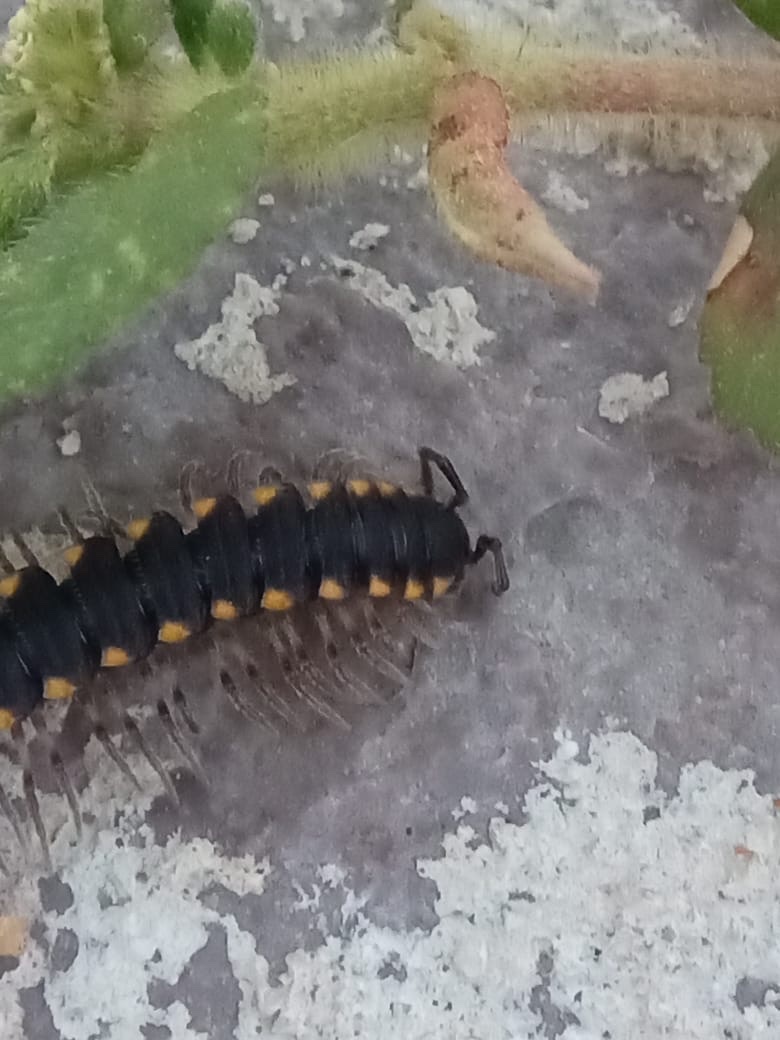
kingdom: Animalia
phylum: Arthropoda
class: Diplopoda
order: Polydesmida
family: Paradoxosomatidae
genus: Streptogonopus
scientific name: Streptogonopus phipsoni
